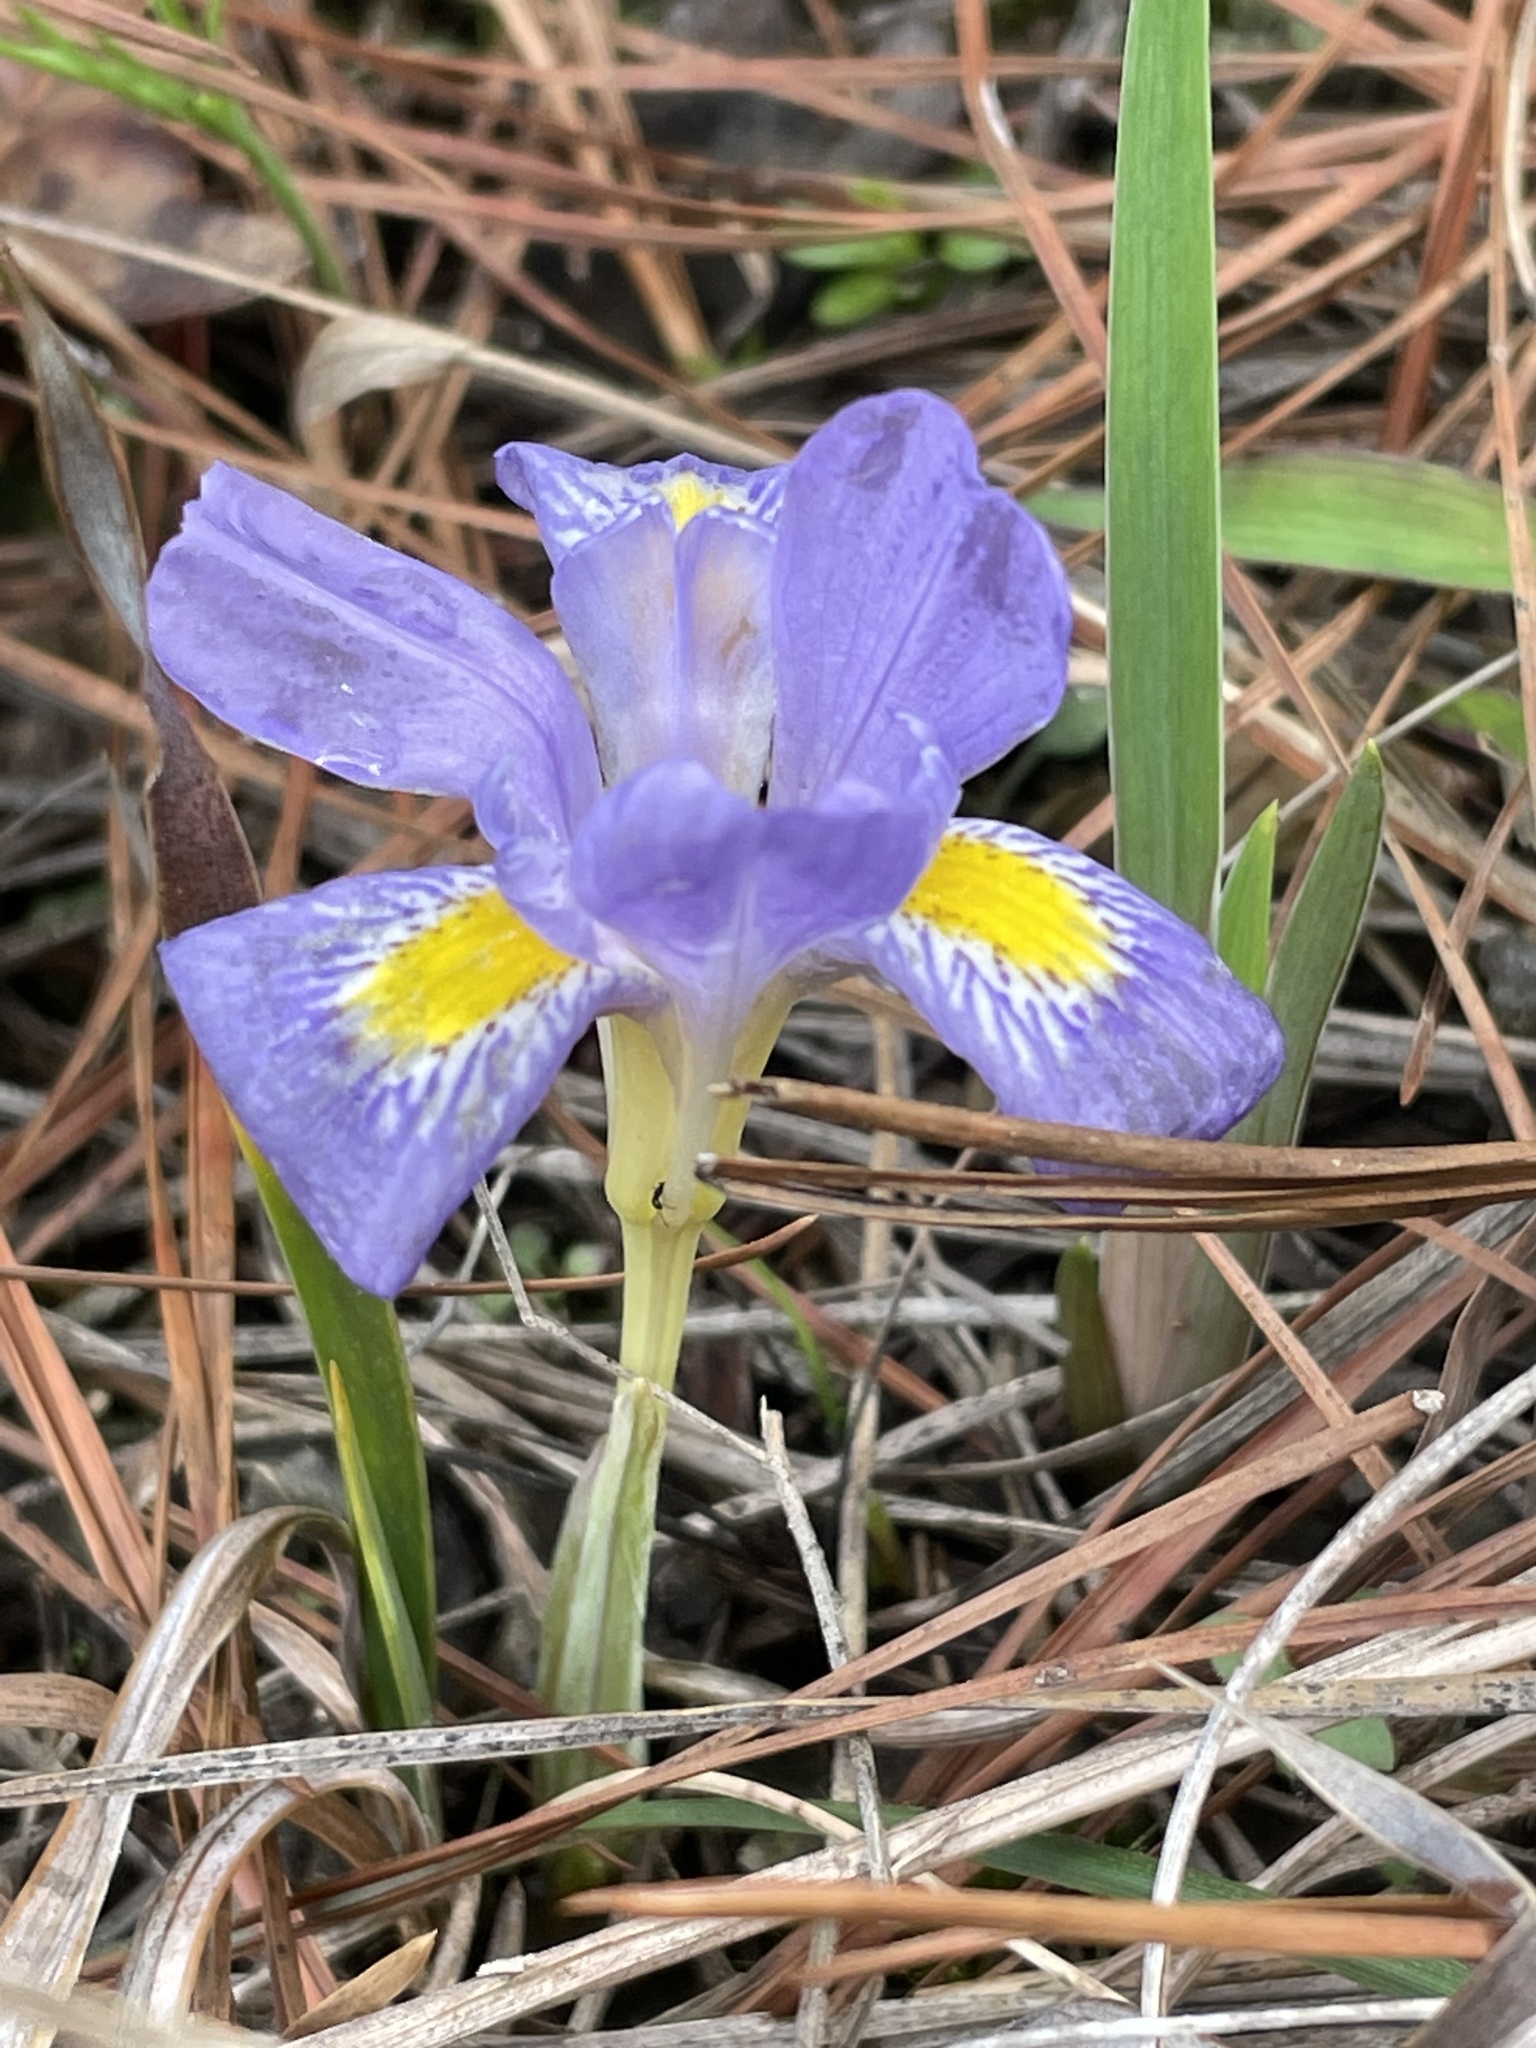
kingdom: Plantae
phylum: Tracheophyta
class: Liliopsida
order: Asparagales
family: Iridaceae
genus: Iris
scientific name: Iris verna
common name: Dwarf iris
